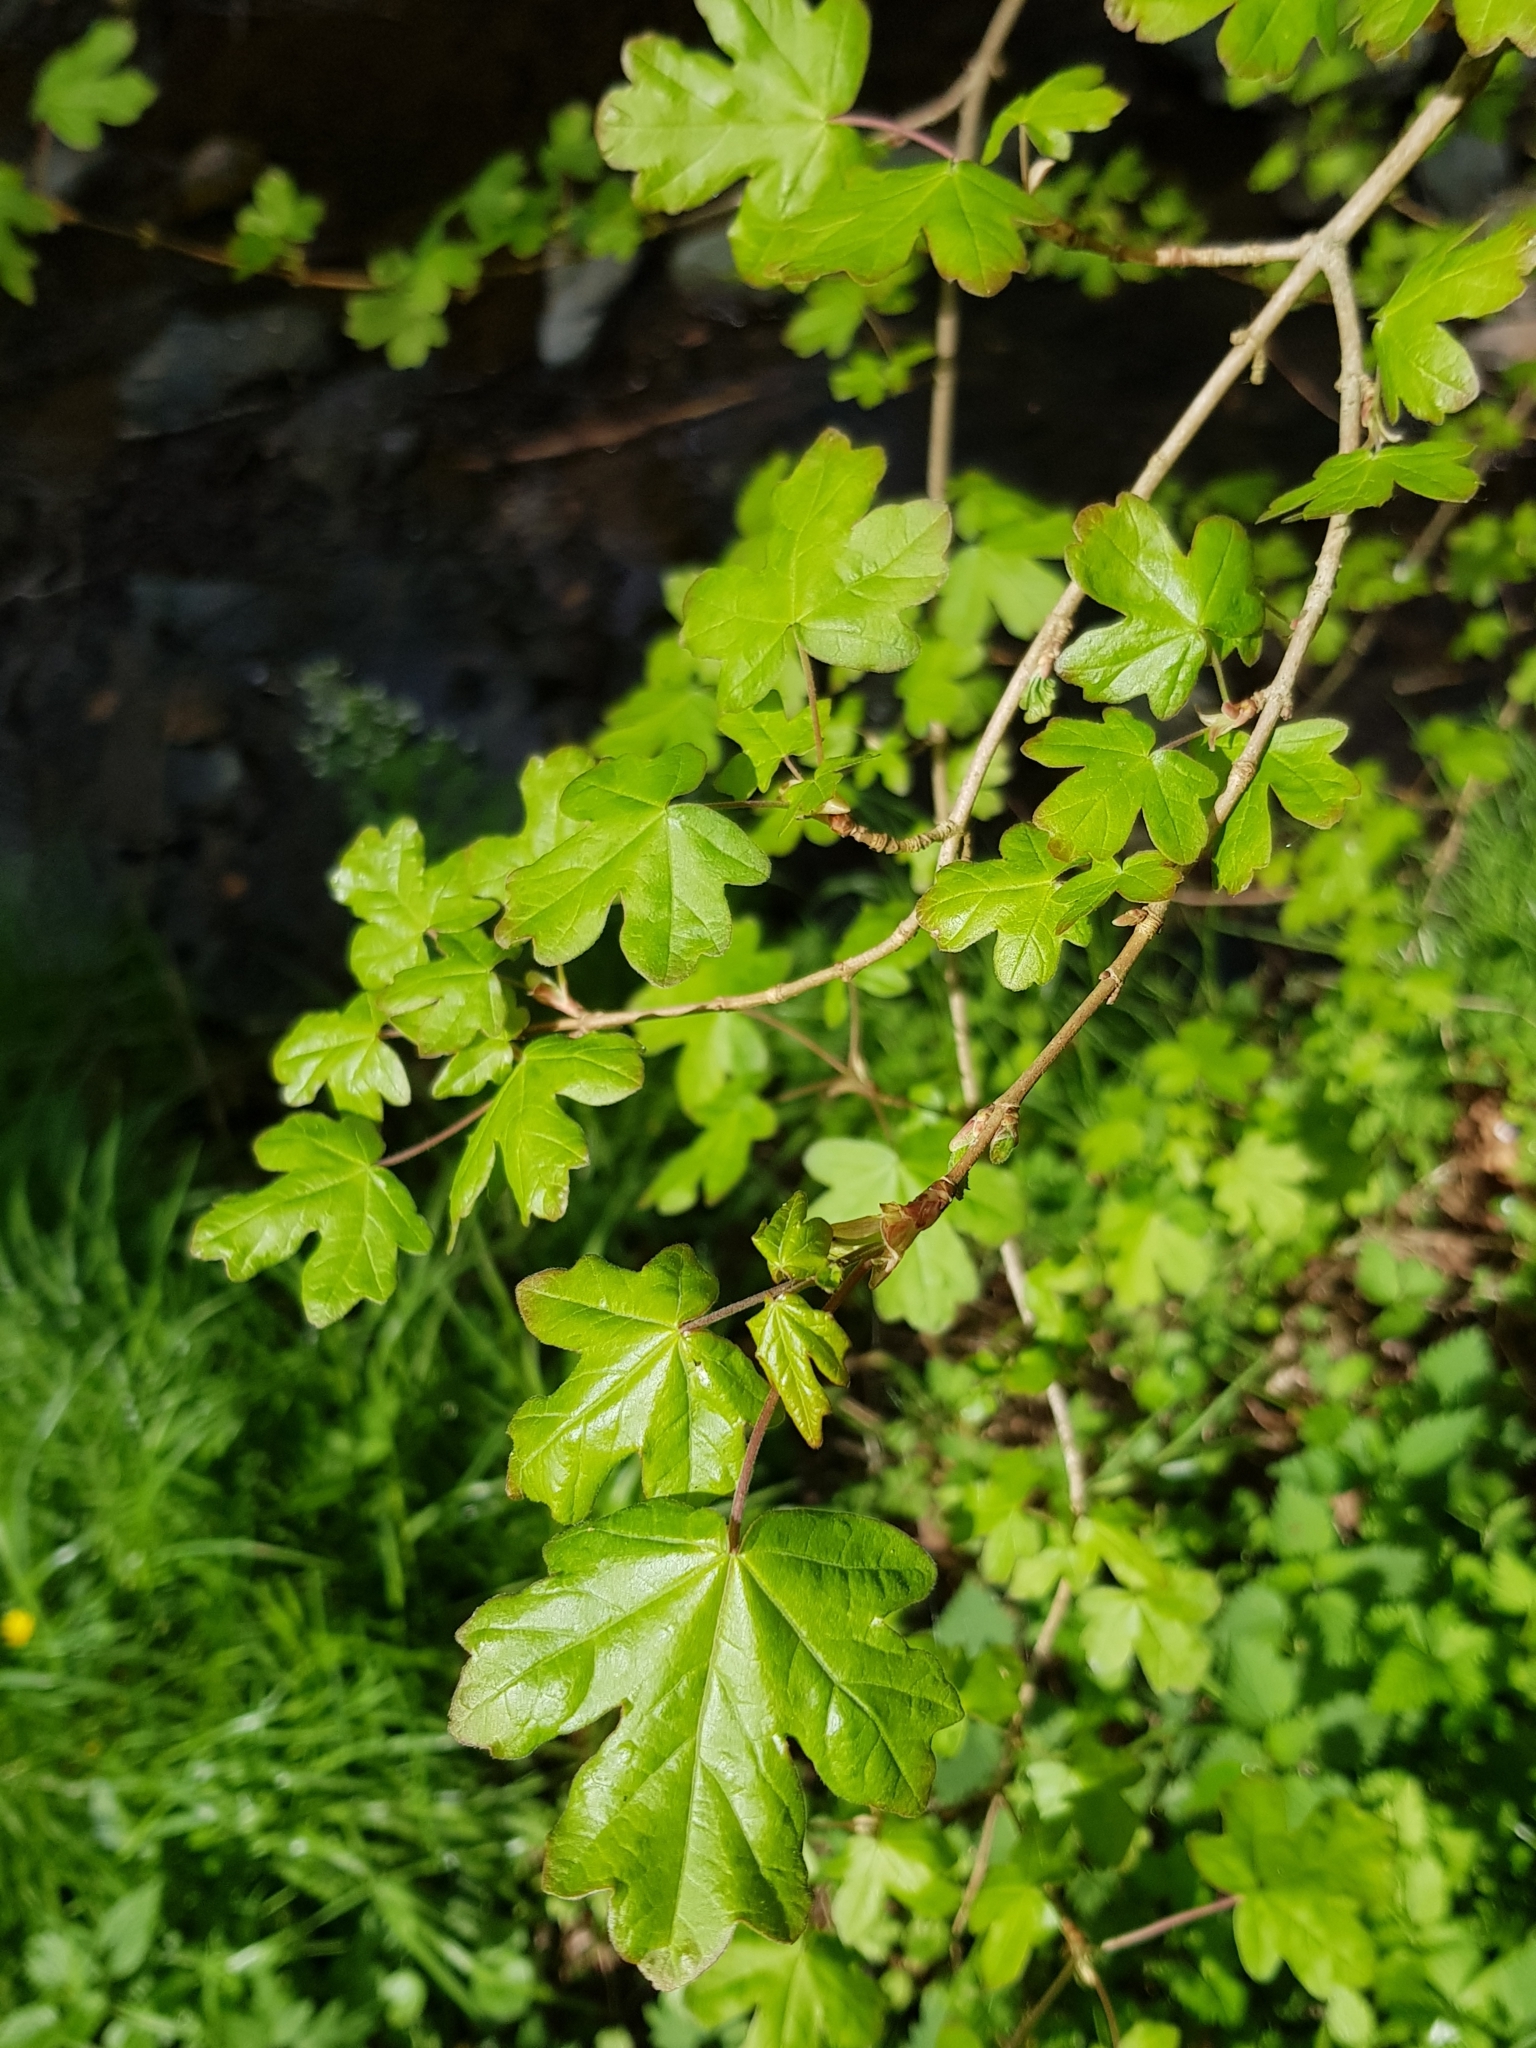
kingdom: Plantae
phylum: Tracheophyta
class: Magnoliopsida
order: Sapindales
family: Sapindaceae
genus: Acer
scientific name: Acer campestre
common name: Field maple
